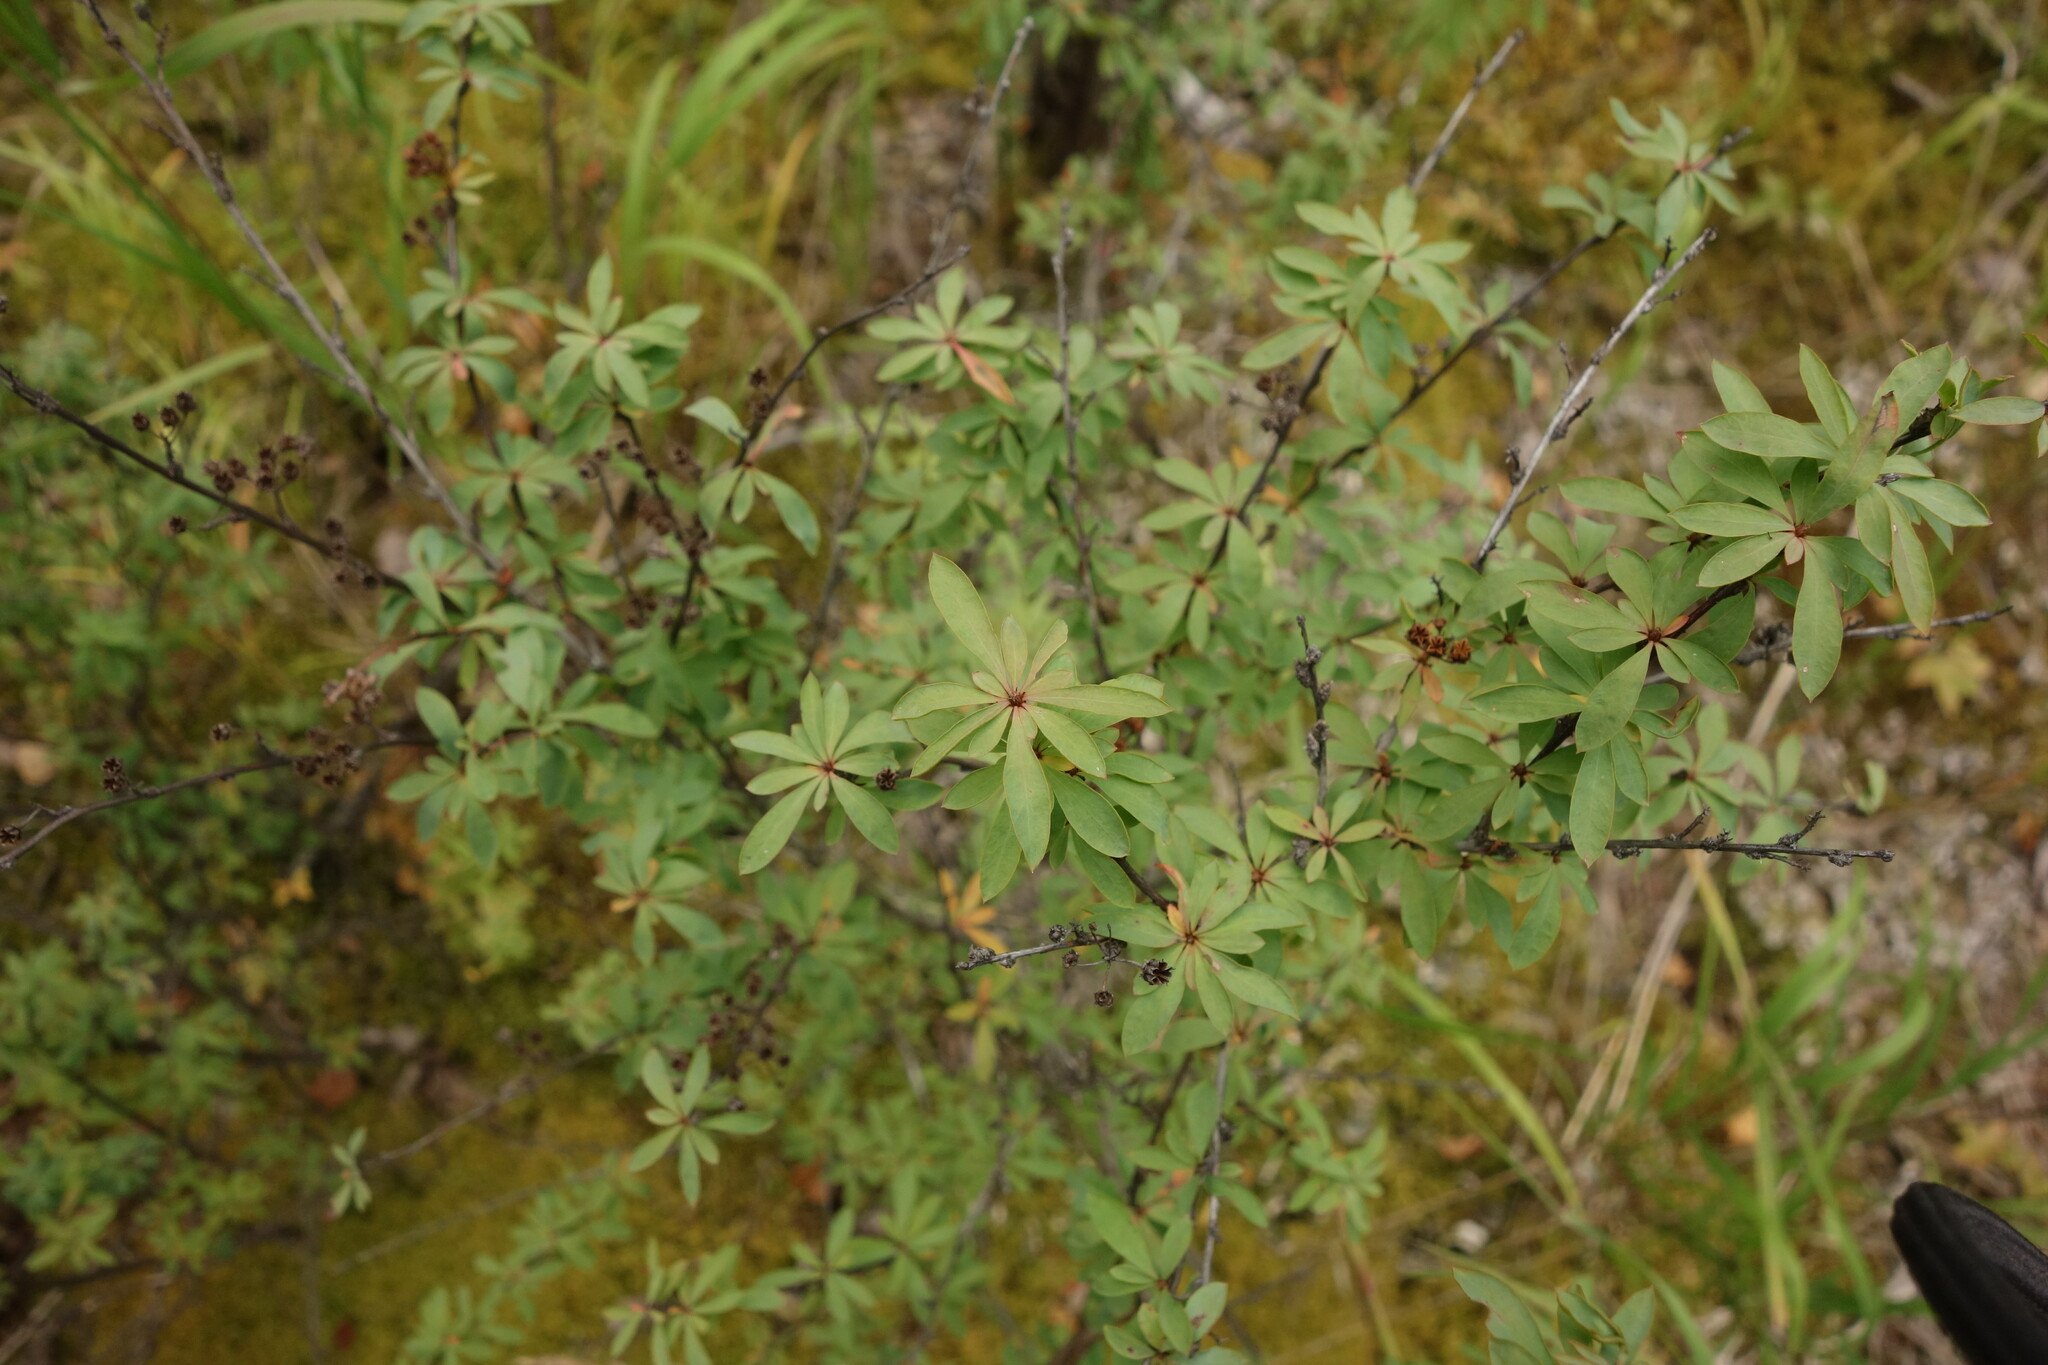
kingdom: Plantae
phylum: Tracheophyta
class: Magnoliopsida
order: Rosales
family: Rosaceae
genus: Spiraea
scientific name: Spiraea alpina
